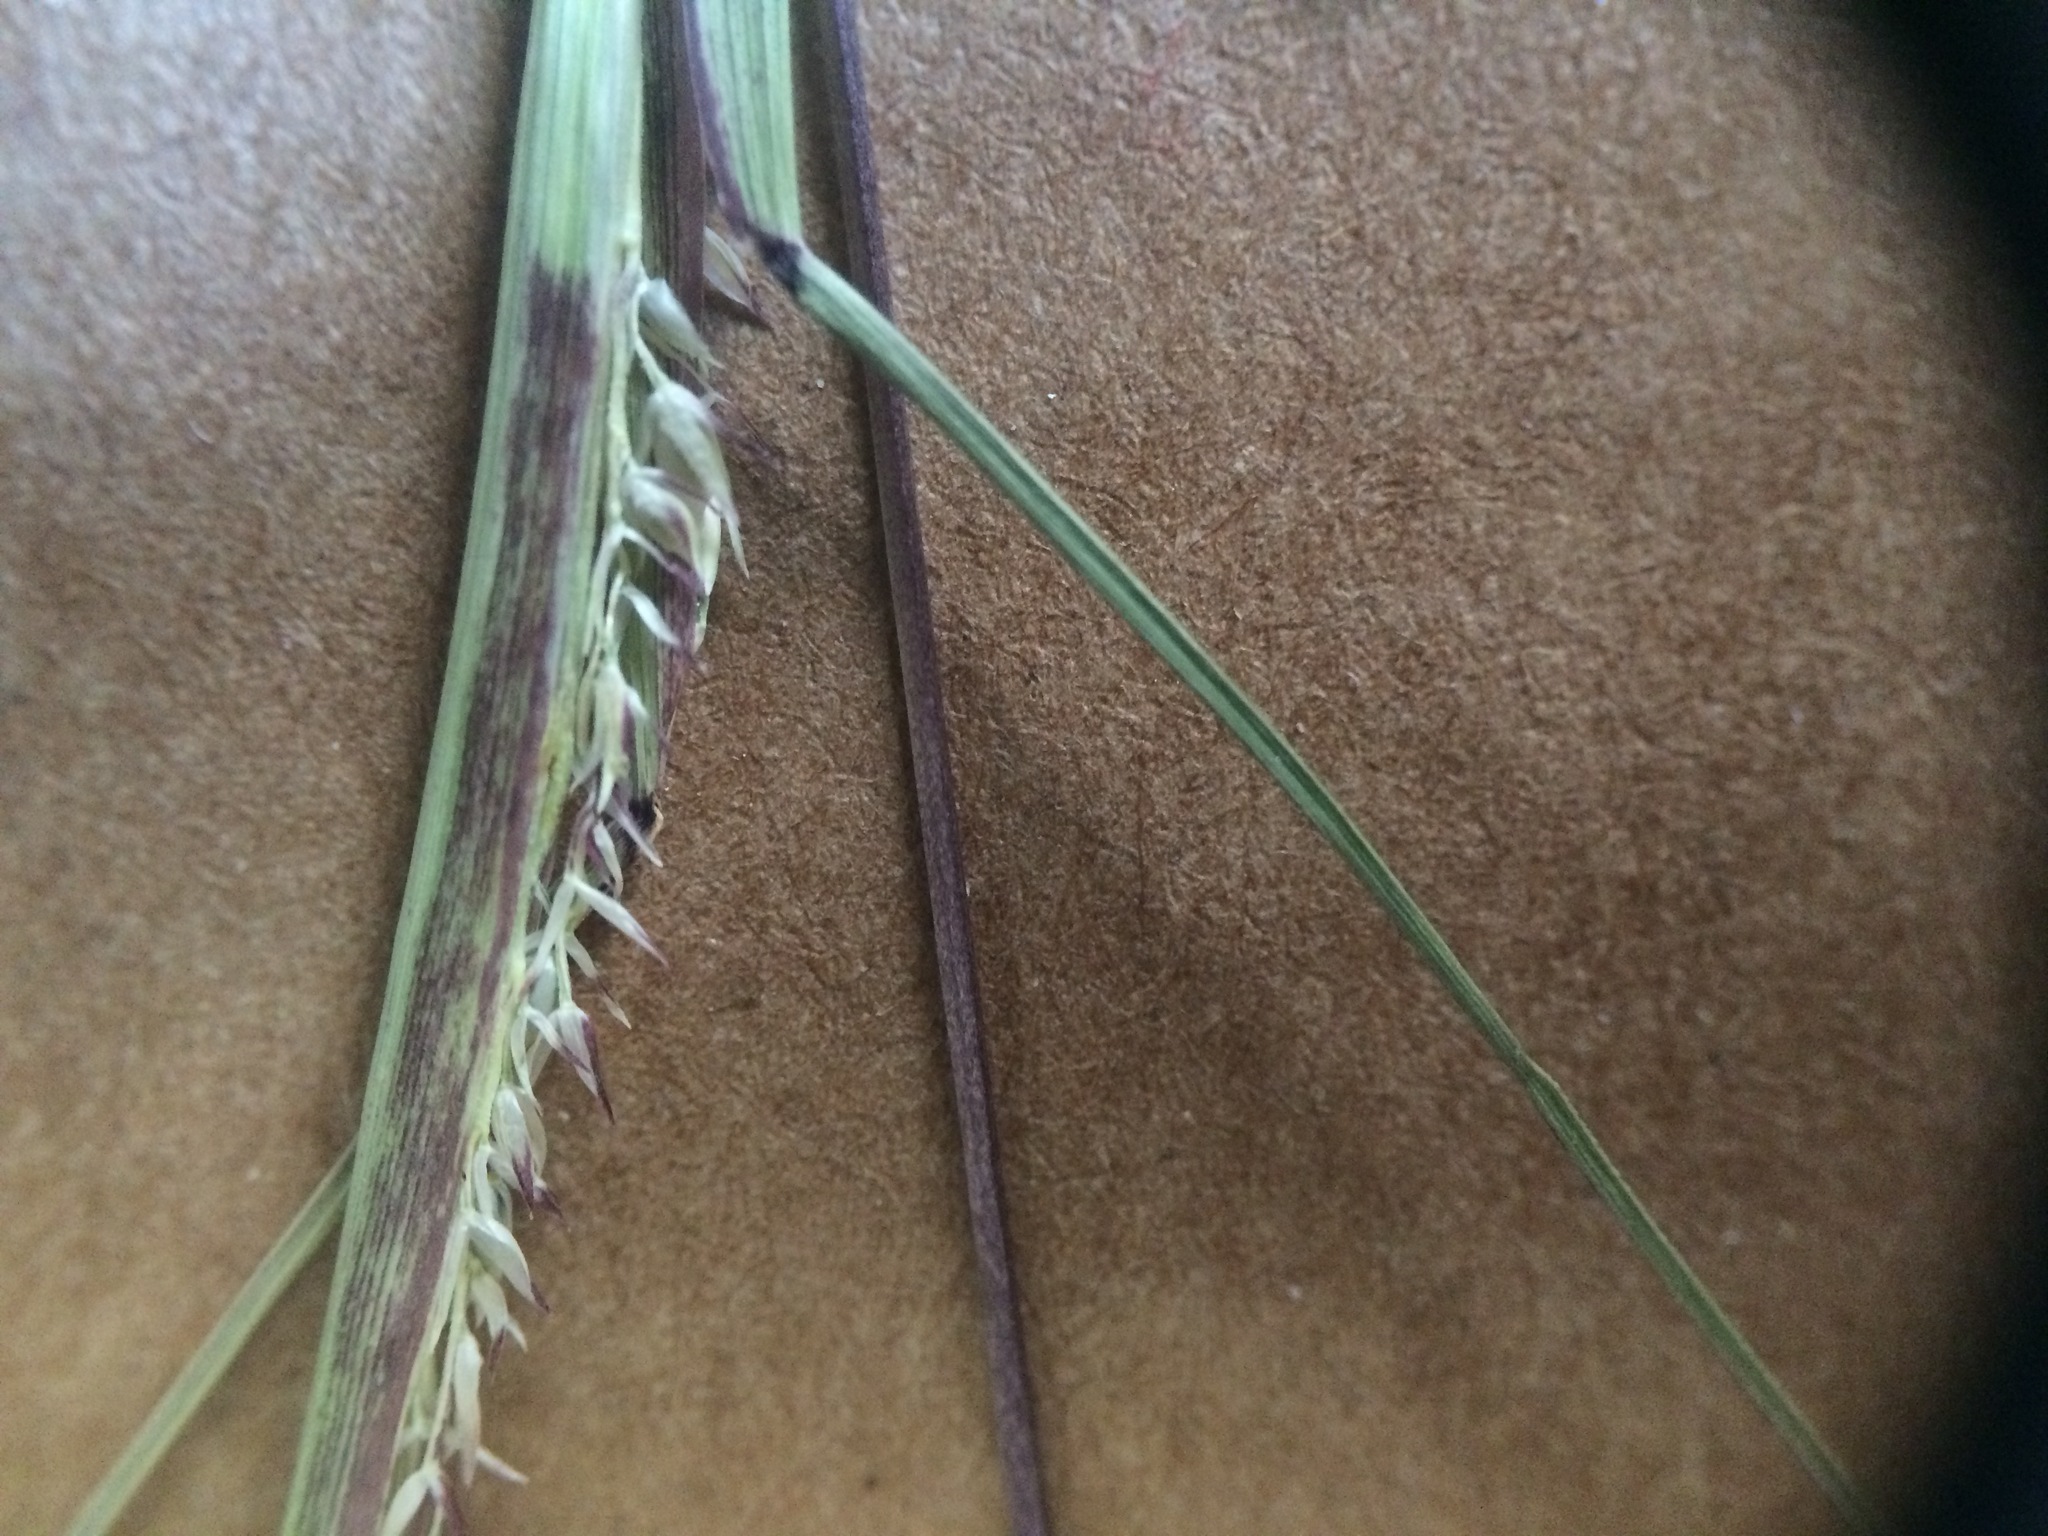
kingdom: Plantae
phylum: Tracheophyta
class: Liliopsida
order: Poales
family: Poaceae
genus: Sporobolus
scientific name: Sporobolus neglectus
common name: Annual dropseed
